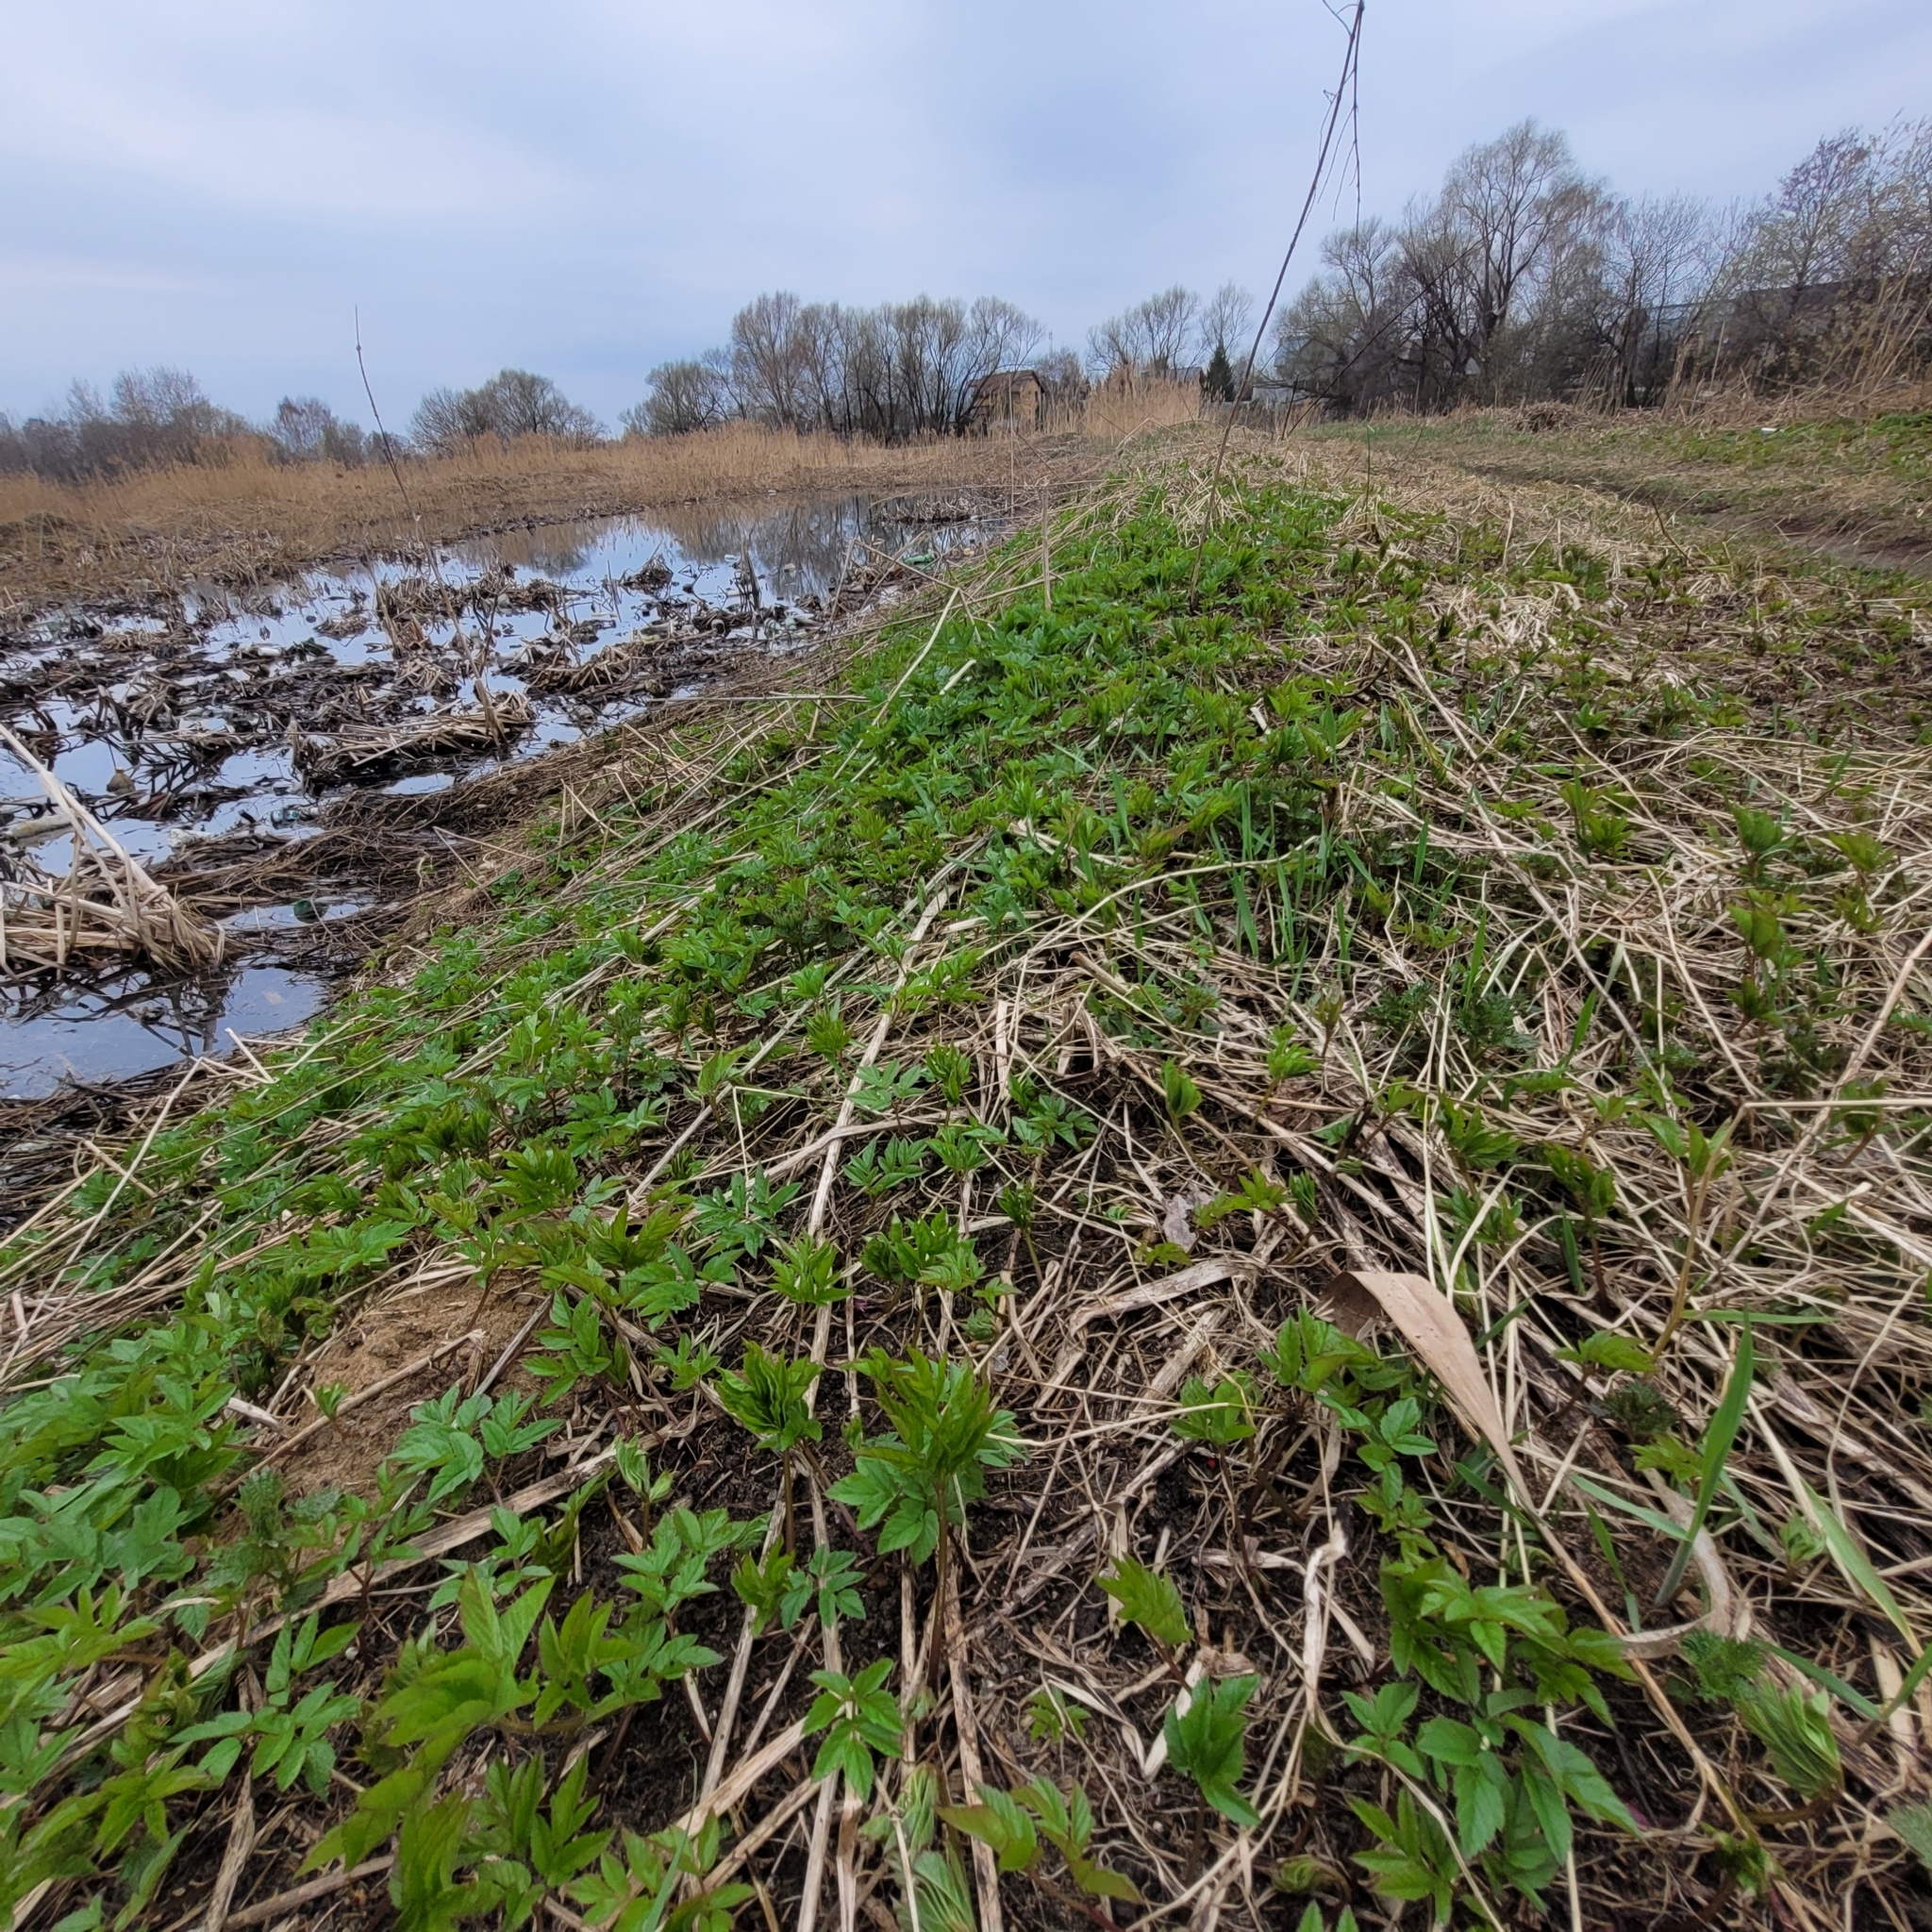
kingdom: Plantae
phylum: Tracheophyta
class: Magnoliopsida
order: Apiales
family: Apiaceae
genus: Aegopodium
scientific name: Aegopodium podagraria
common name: Ground-elder
